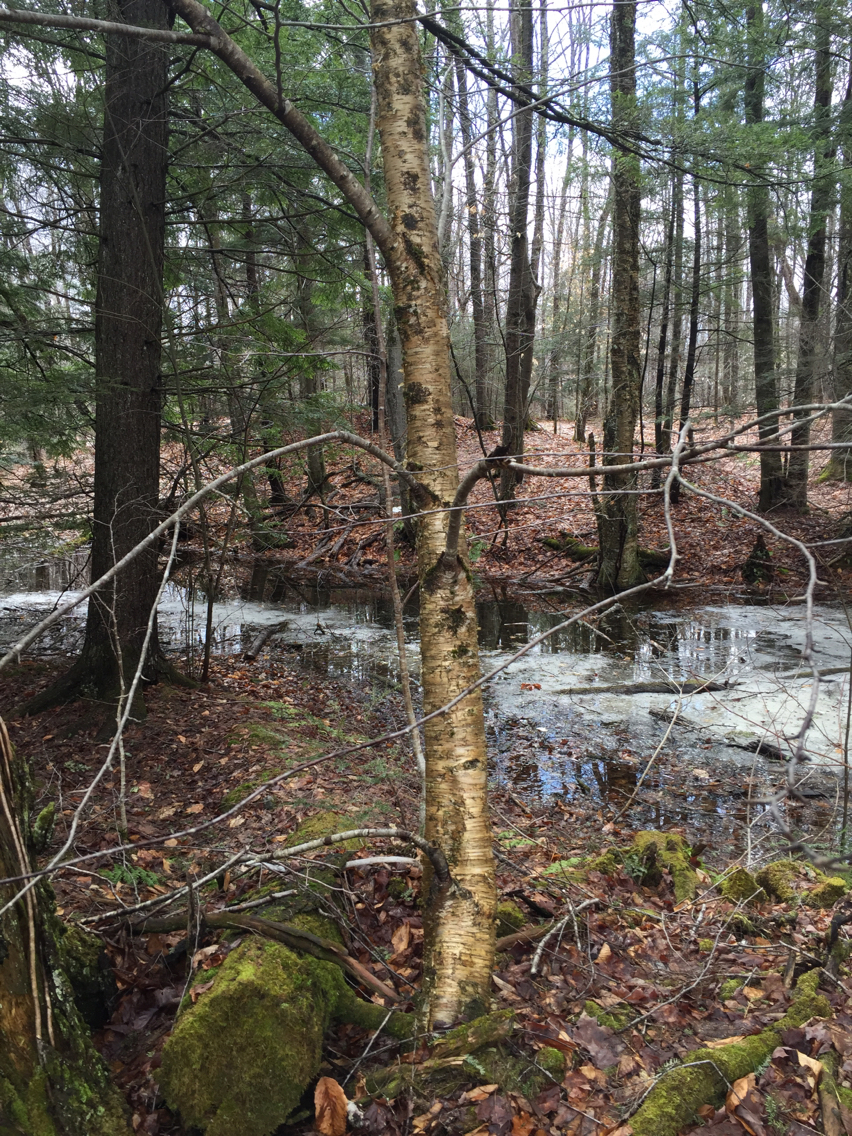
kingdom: Plantae
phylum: Tracheophyta
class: Magnoliopsida
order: Fagales
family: Betulaceae
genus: Betula
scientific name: Betula alleghaniensis
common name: Yellow birch
